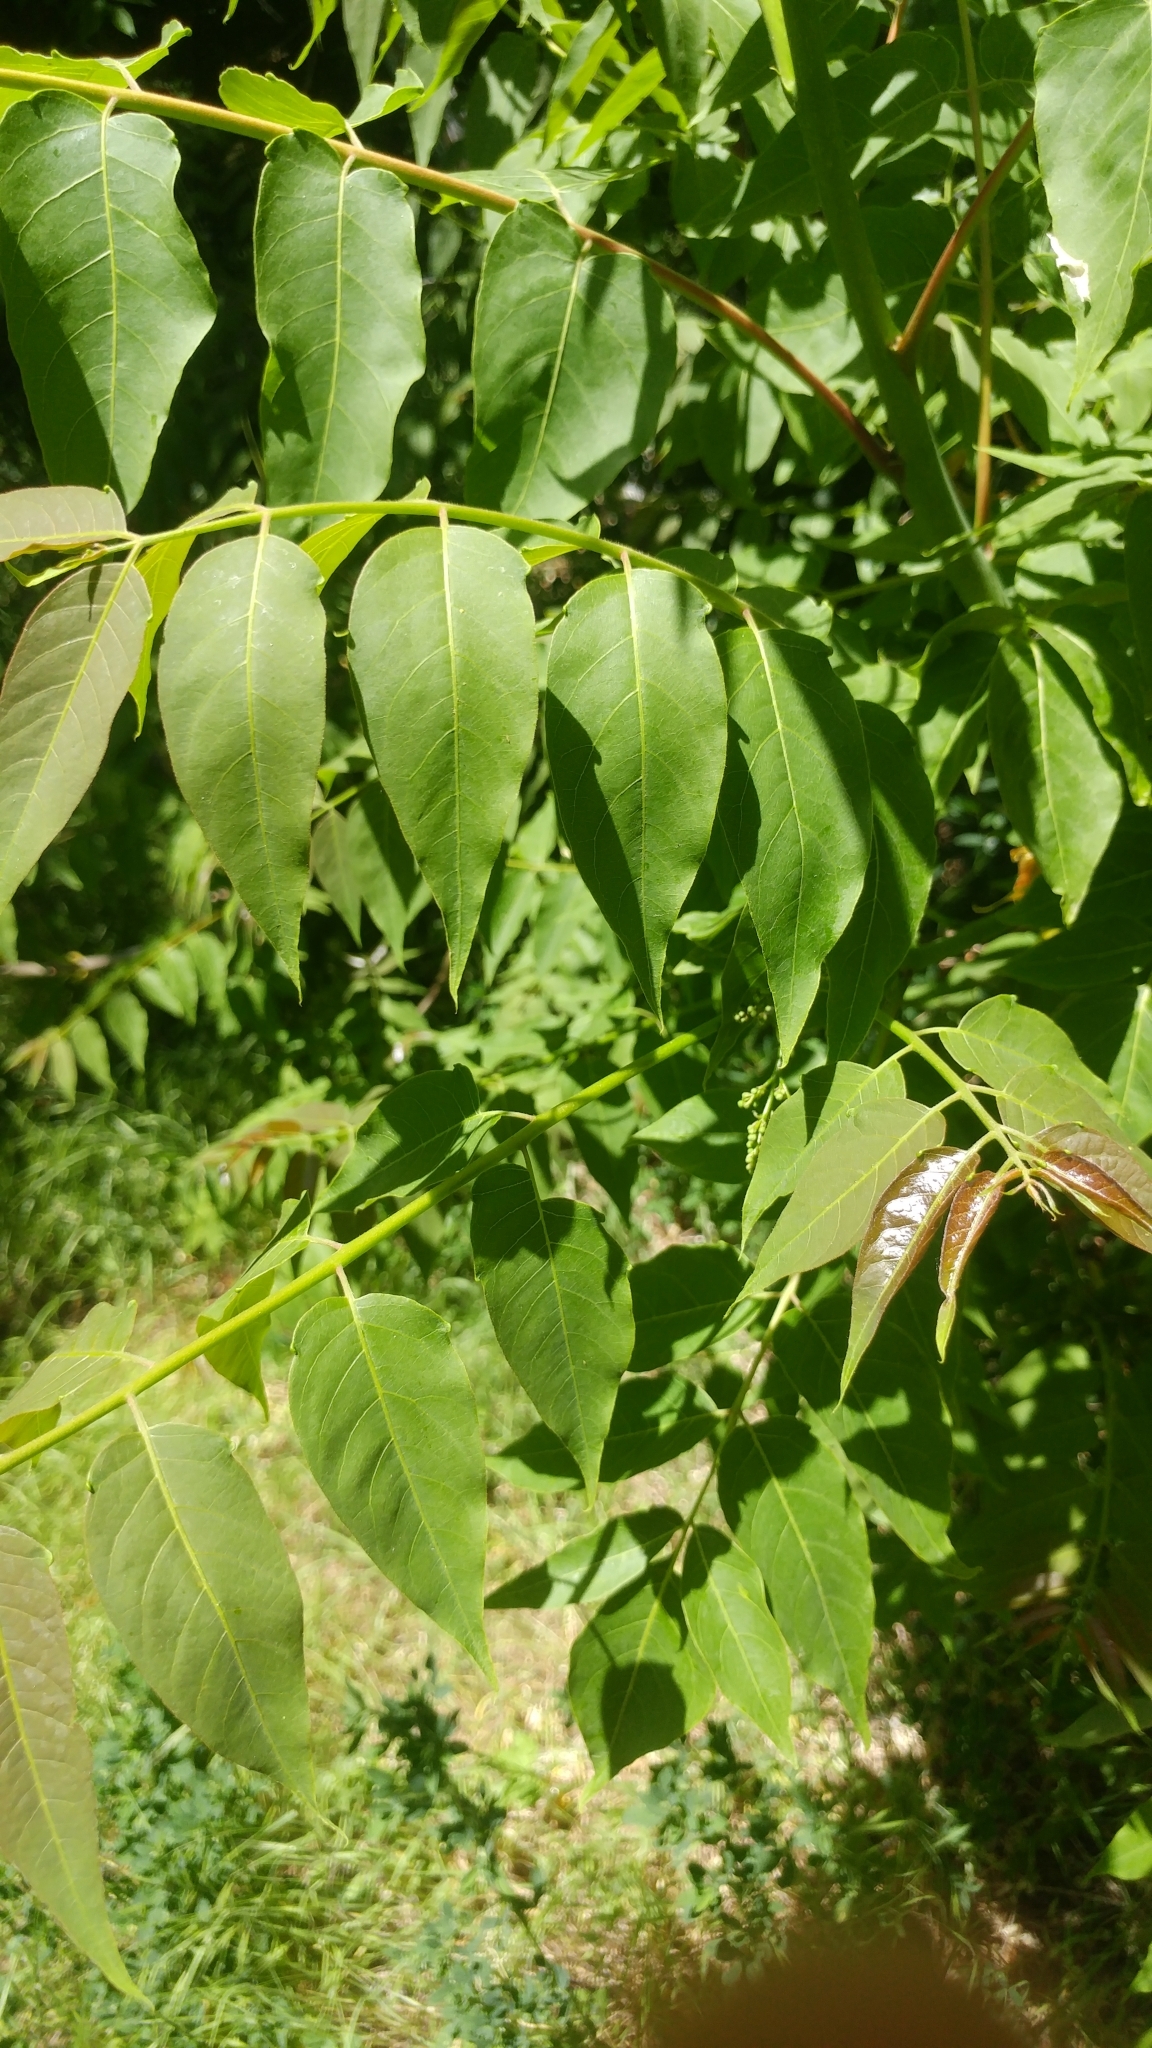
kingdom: Plantae
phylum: Tracheophyta
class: Magnoliopsida
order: Sapindales
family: Simaroubaceae
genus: Ailanthus
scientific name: Ailanthus altissima
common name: Tree-of-heaven
